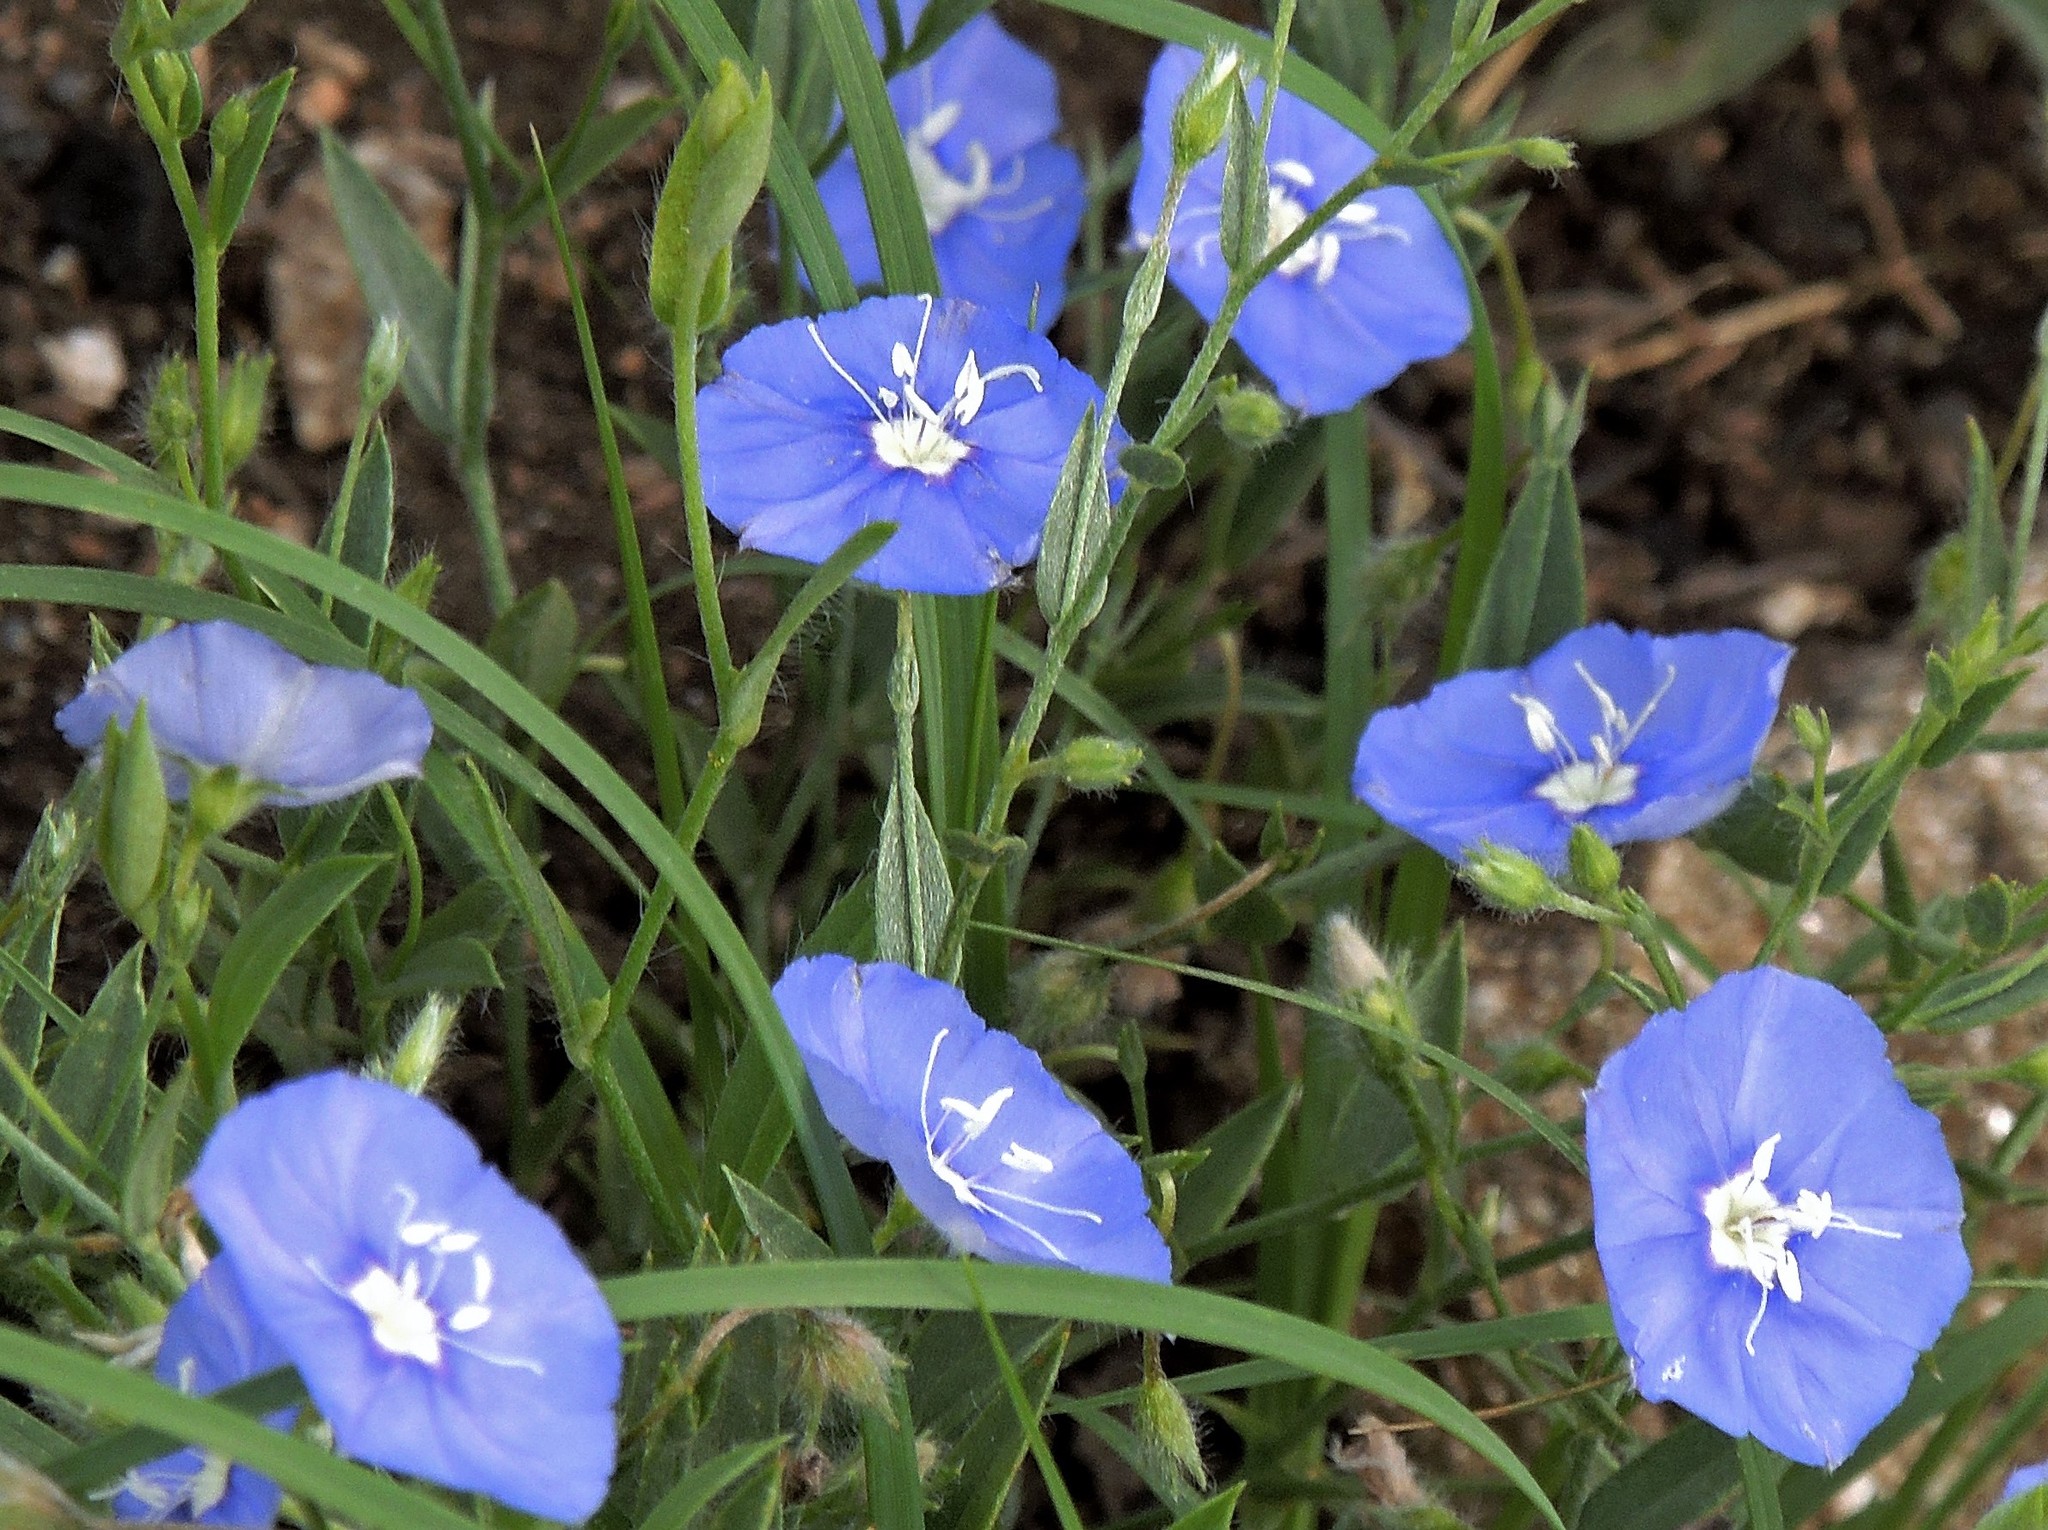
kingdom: Plantae
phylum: Tracheophyta
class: Magnoliopsida
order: Solanales
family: Convolvulaceae
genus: Evolvulus
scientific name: Evolvulus arizonicus
